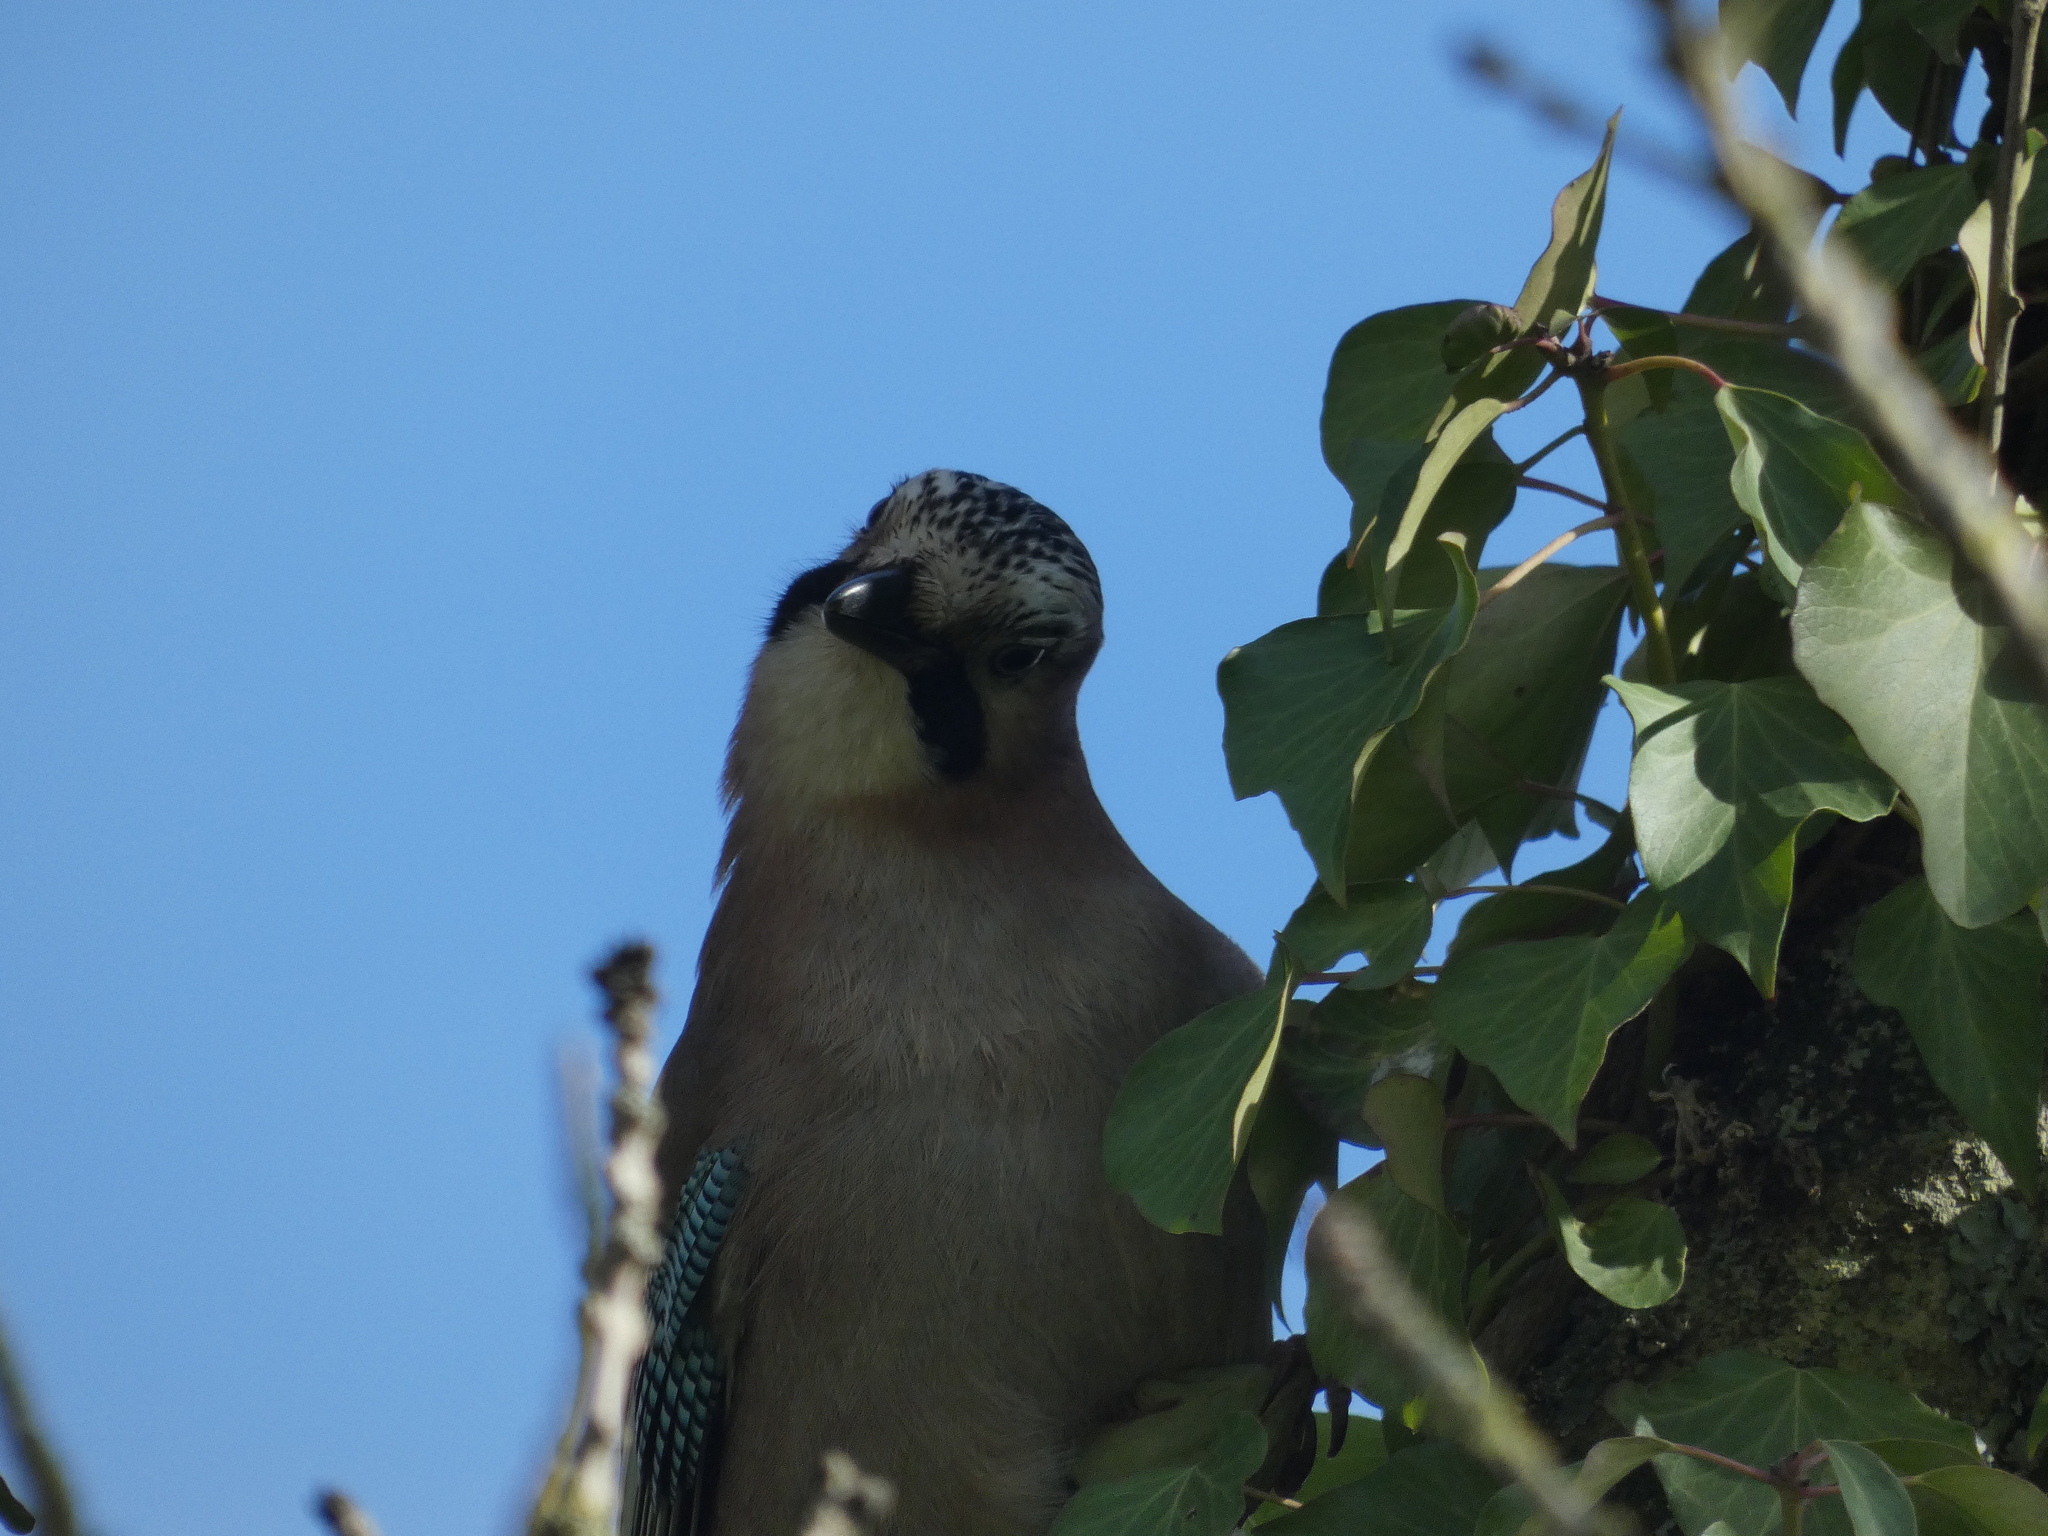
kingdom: Animalia
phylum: Chordata
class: Aves
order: Passeriformes
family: Corvidae
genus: Garrulus
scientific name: Garrulus glandarius
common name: Eurasian jay
